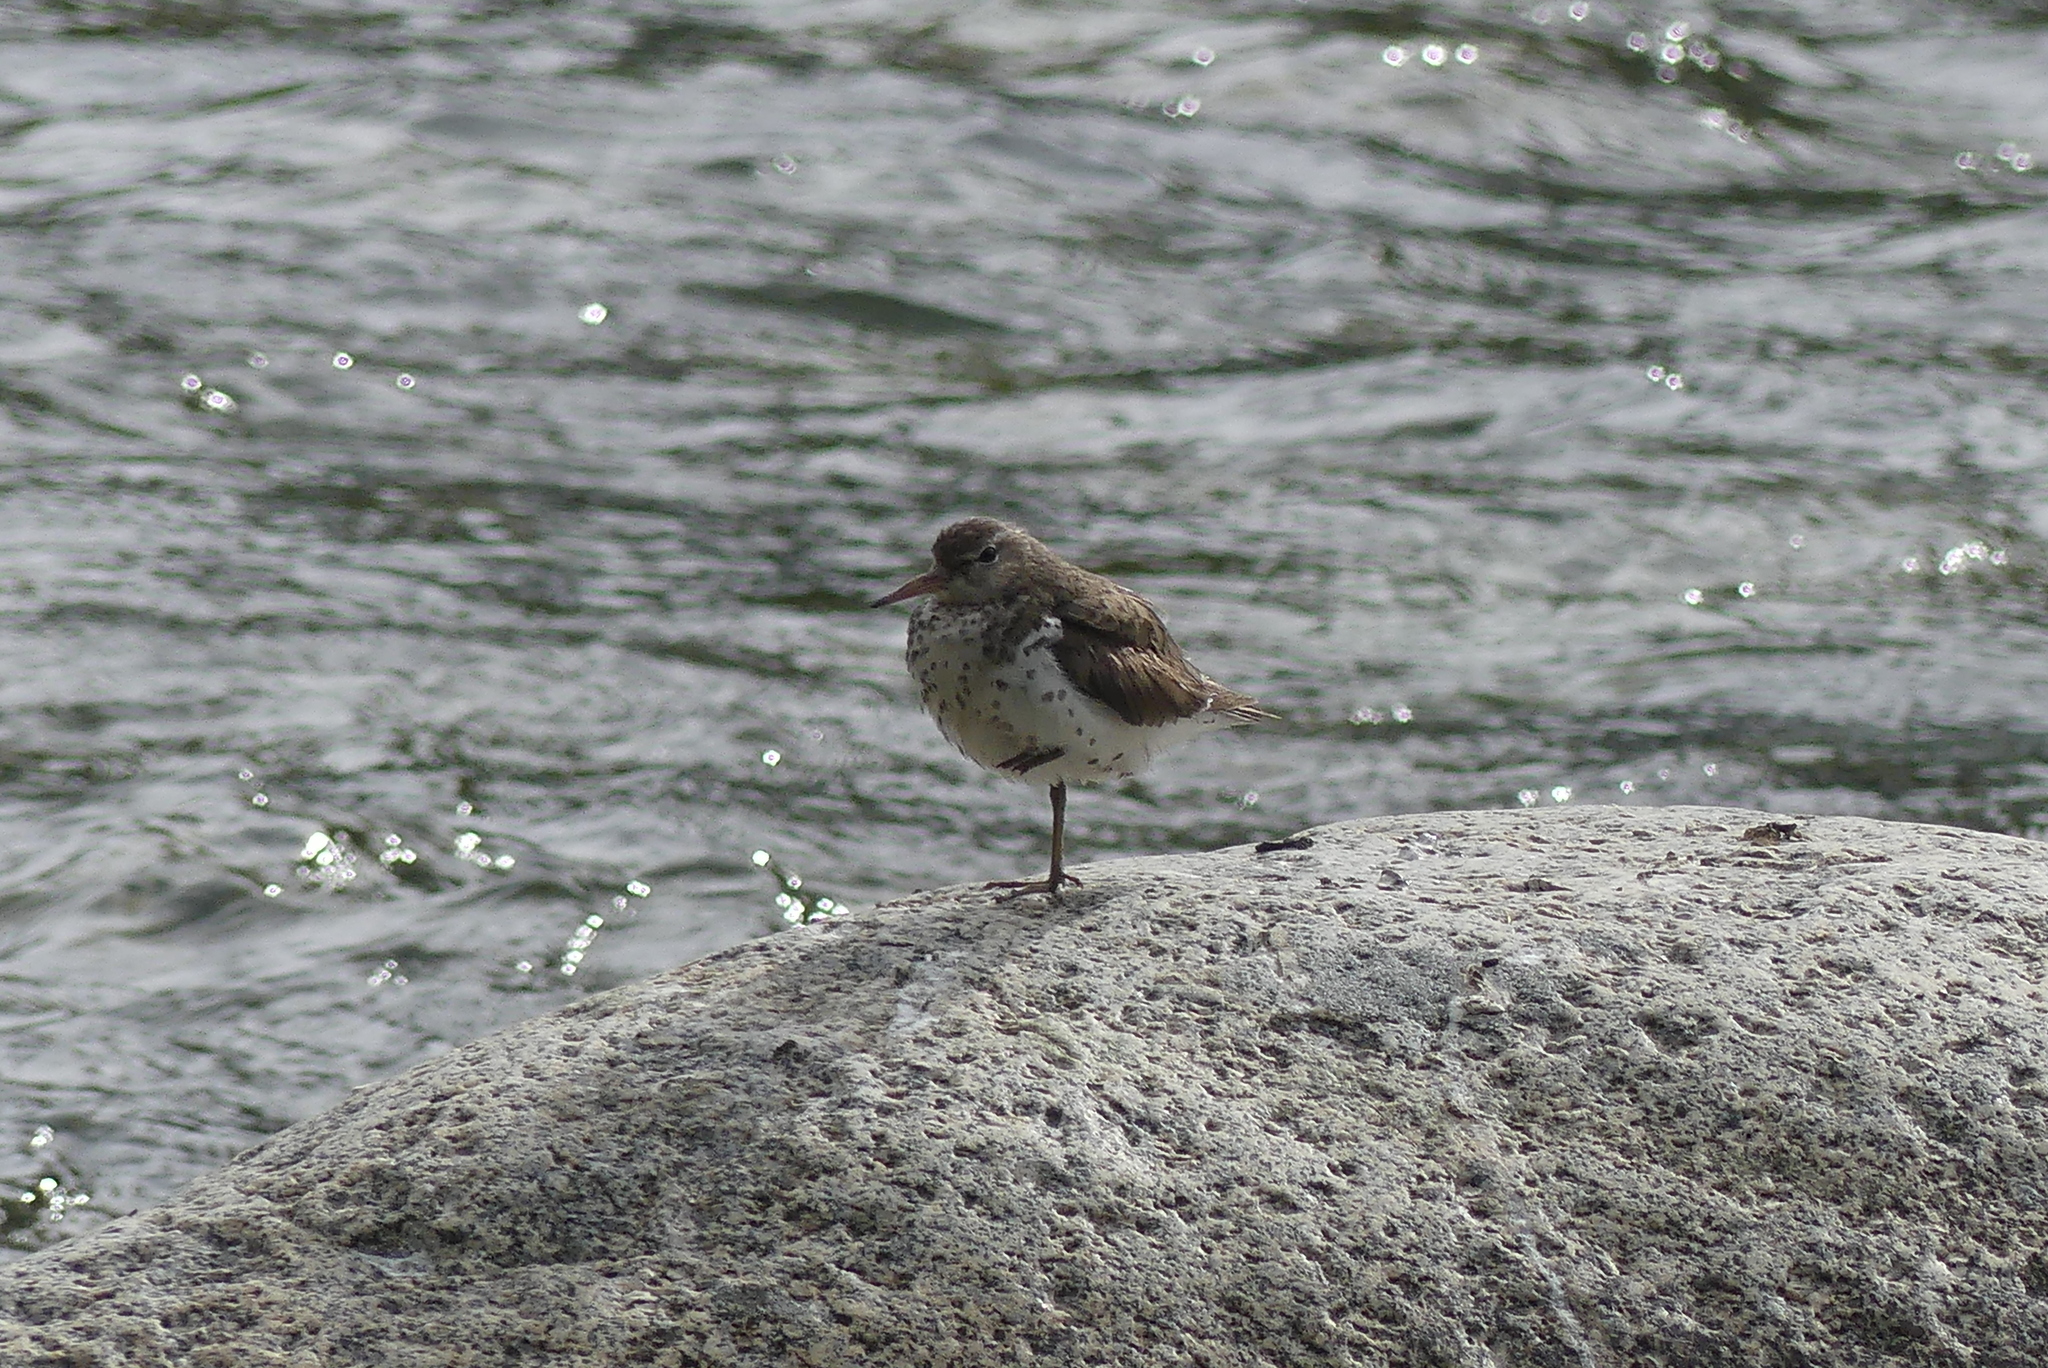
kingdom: Animalia
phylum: Chordata
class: Aves
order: Charadriiformes
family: Scolopacidae
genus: Actitis
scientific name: Actitis macularius
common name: Spotted sandpiper
